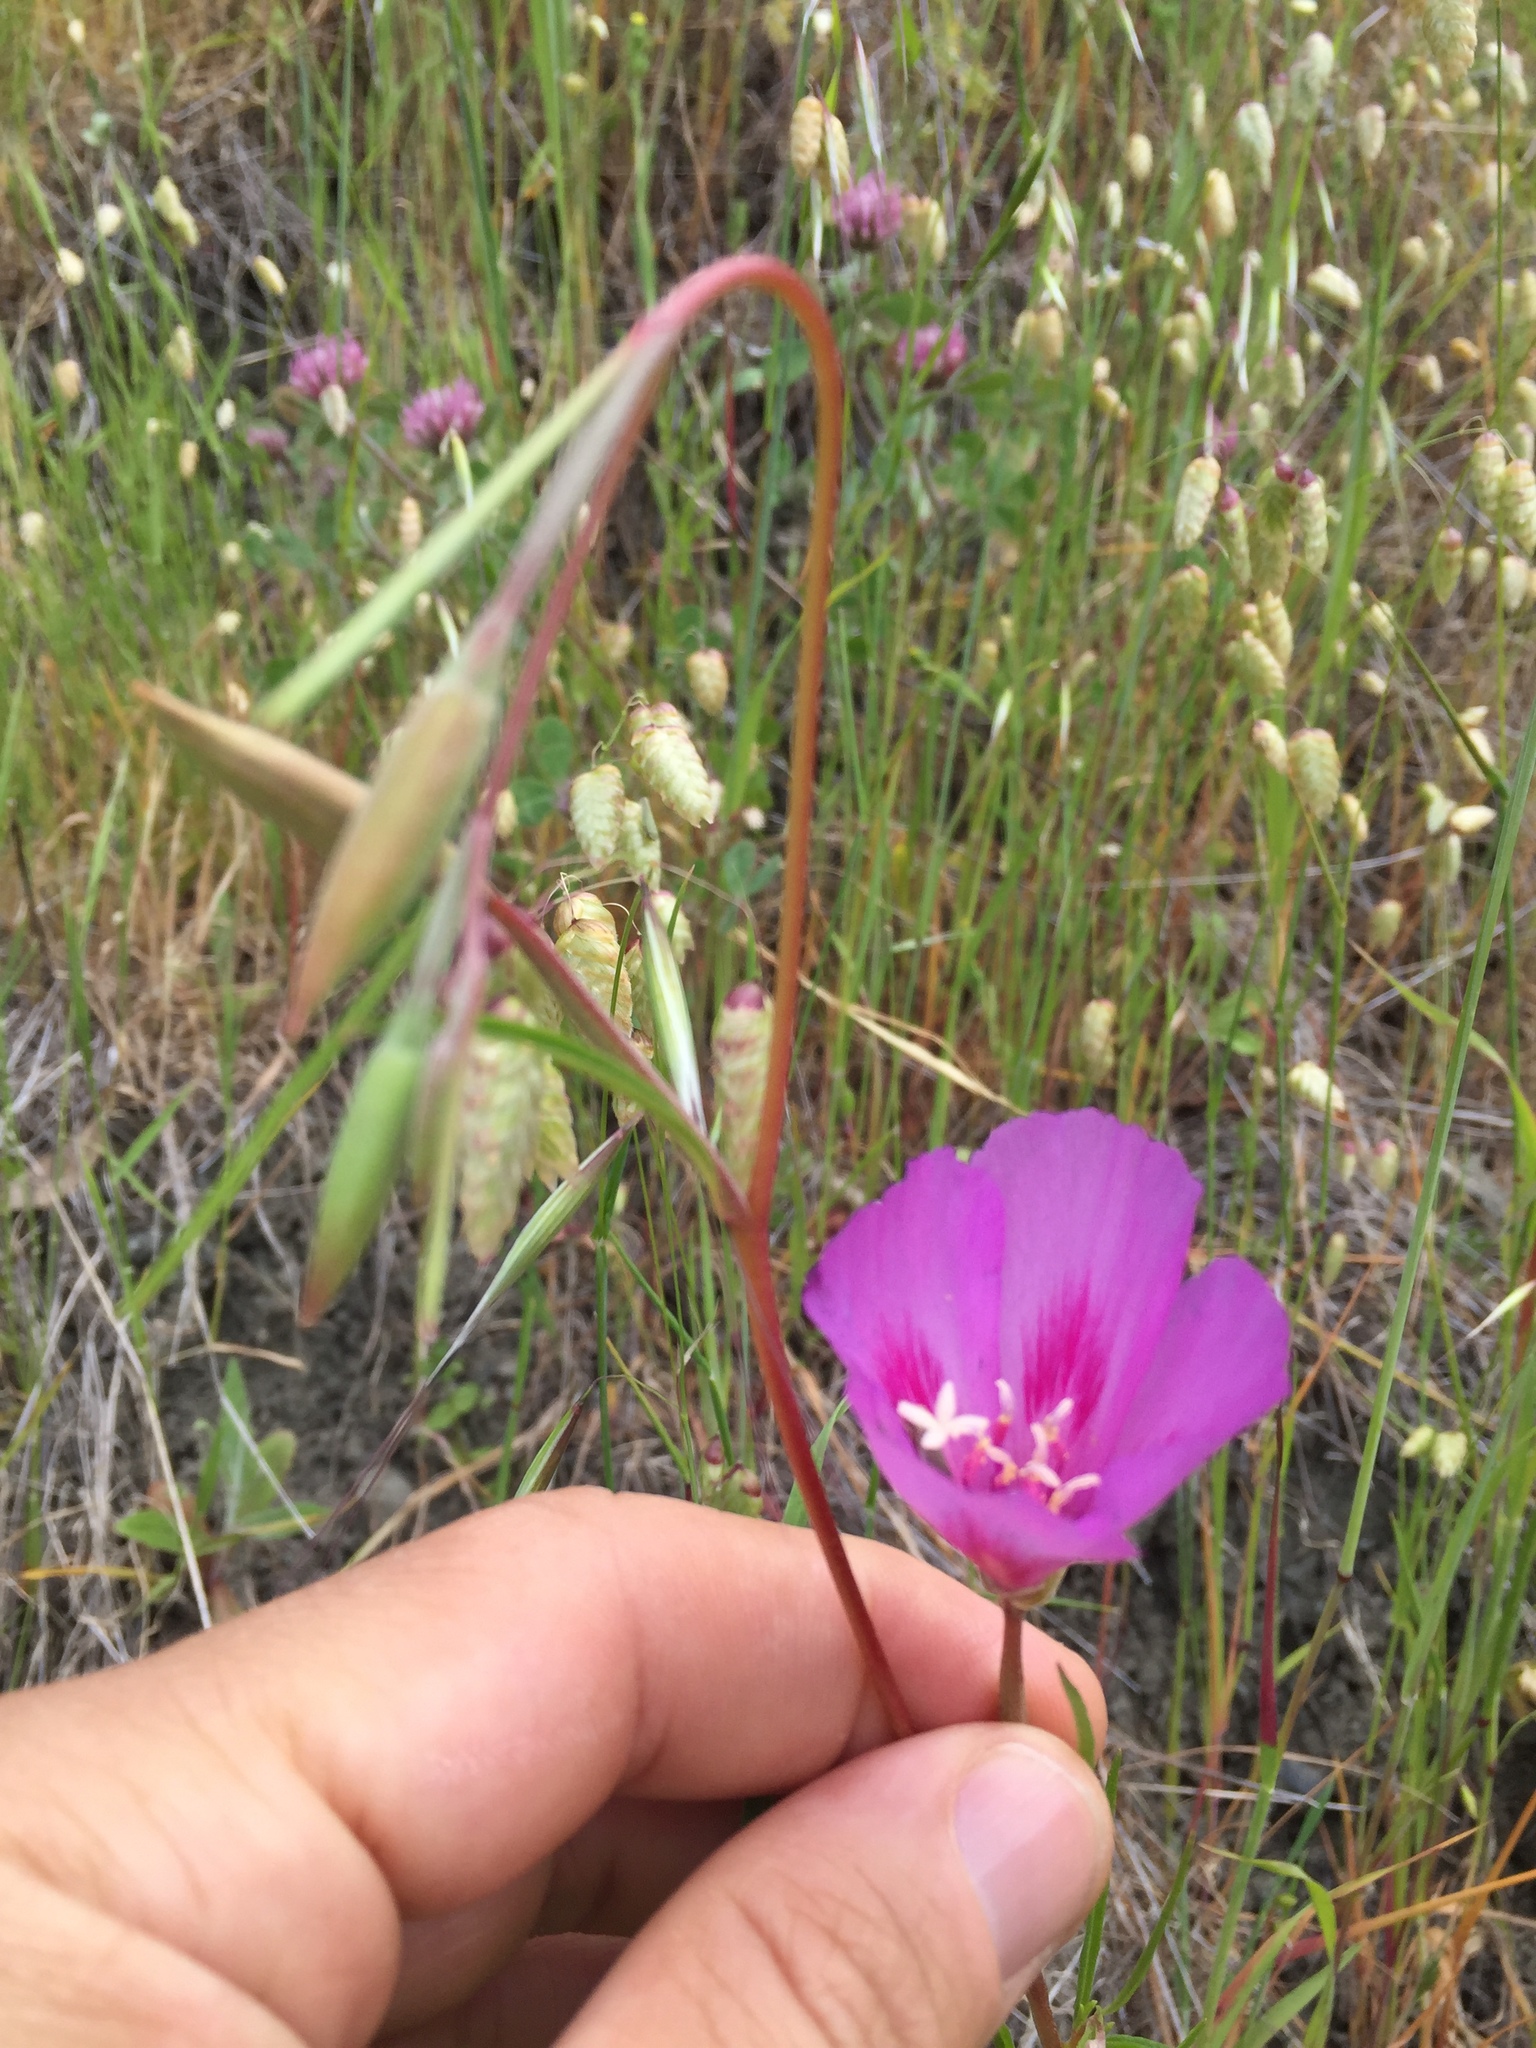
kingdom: Plantae
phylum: Tracheophyta
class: Magnoliopsida
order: Myrtales
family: Onagraceae
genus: Clarkia
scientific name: Clarkia gracilis
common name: Graceful clarkia
